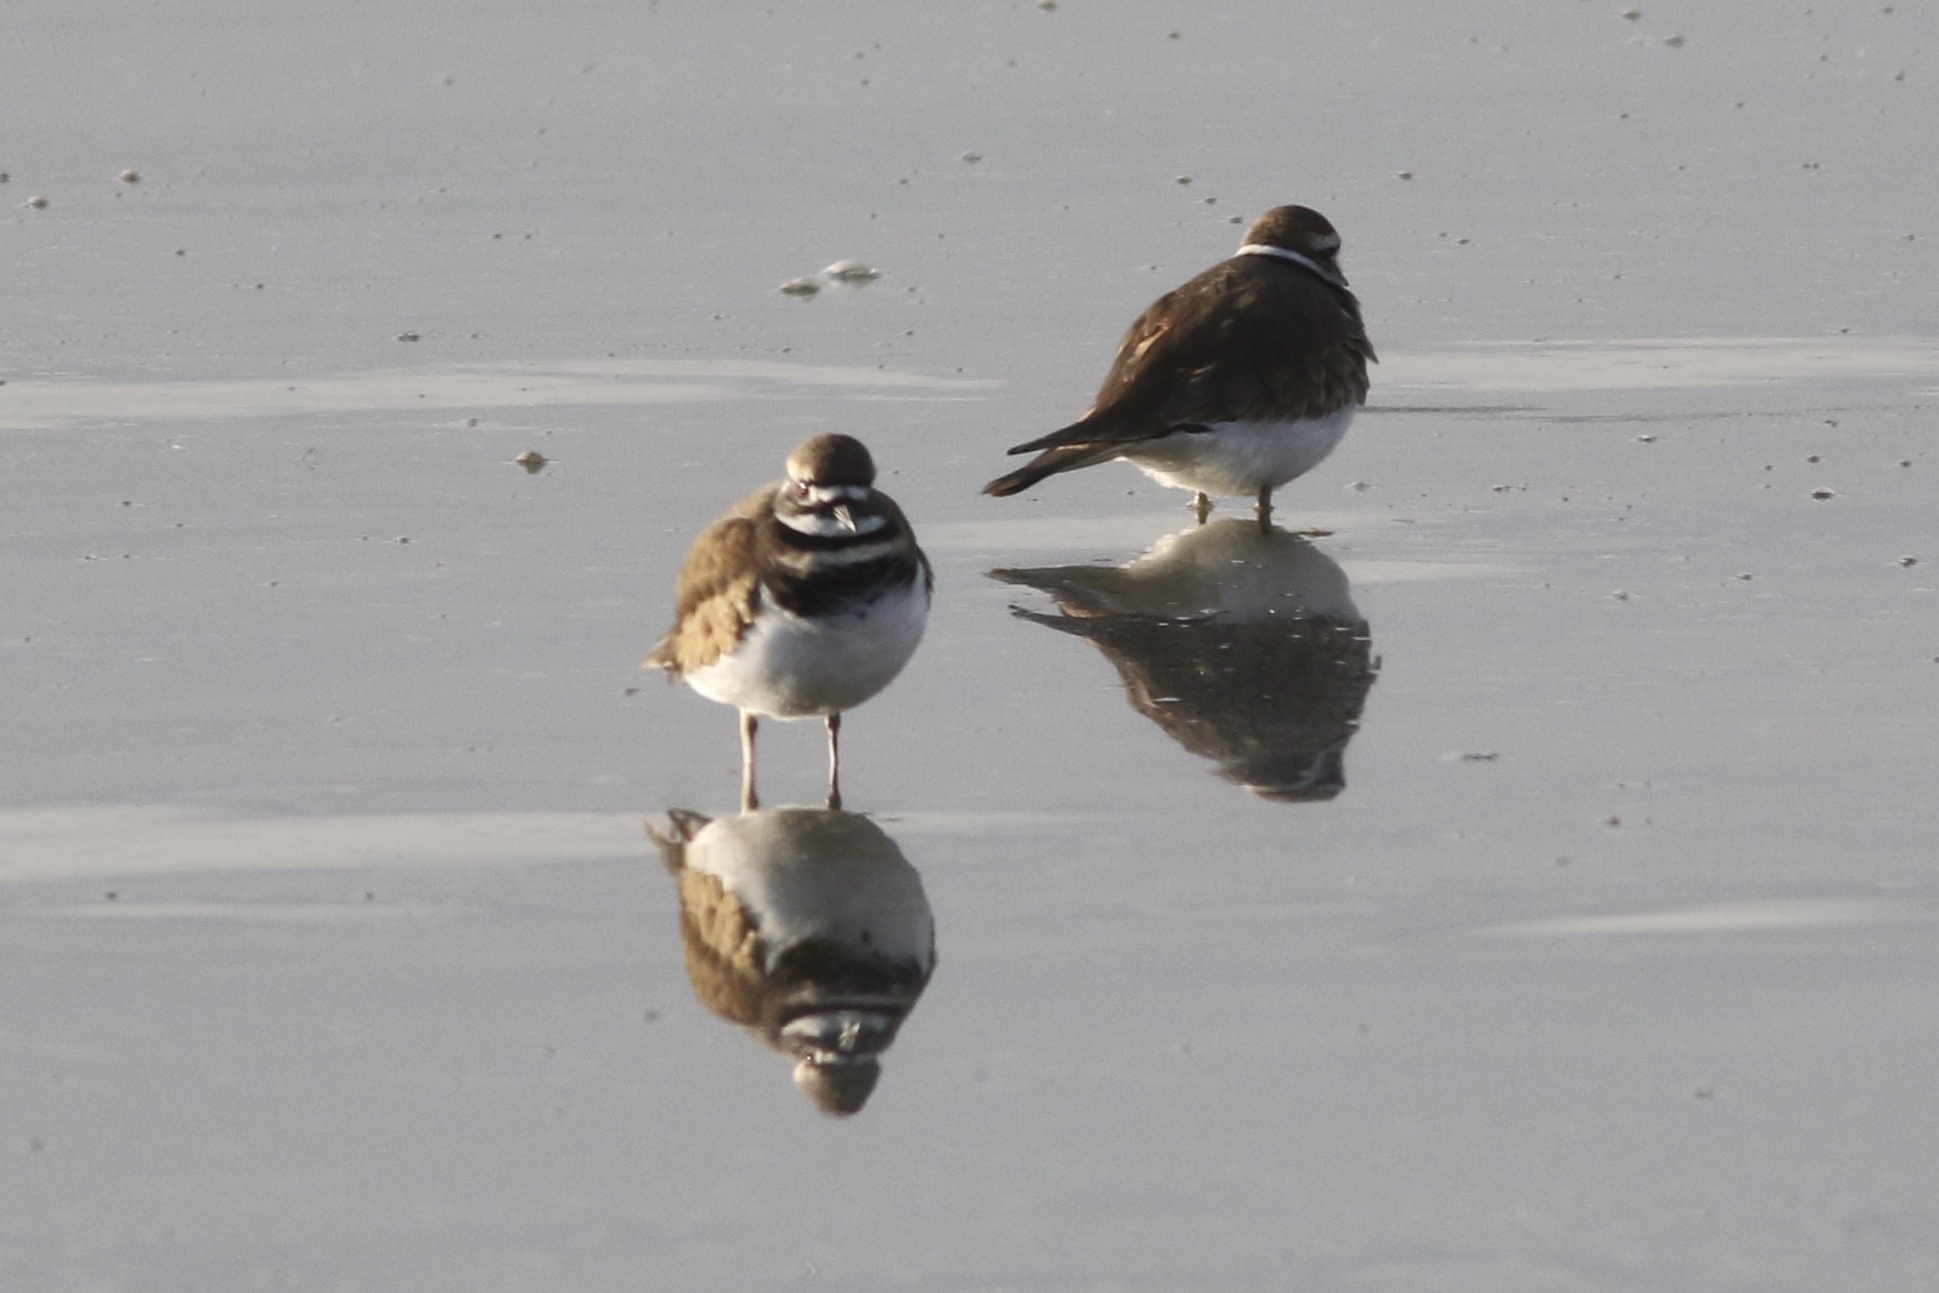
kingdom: Animalia
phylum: Chordata
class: Aves
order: Charadriiformes
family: Charadriidae
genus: Charadrius
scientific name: Charadrius vociferus
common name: Killdeer
